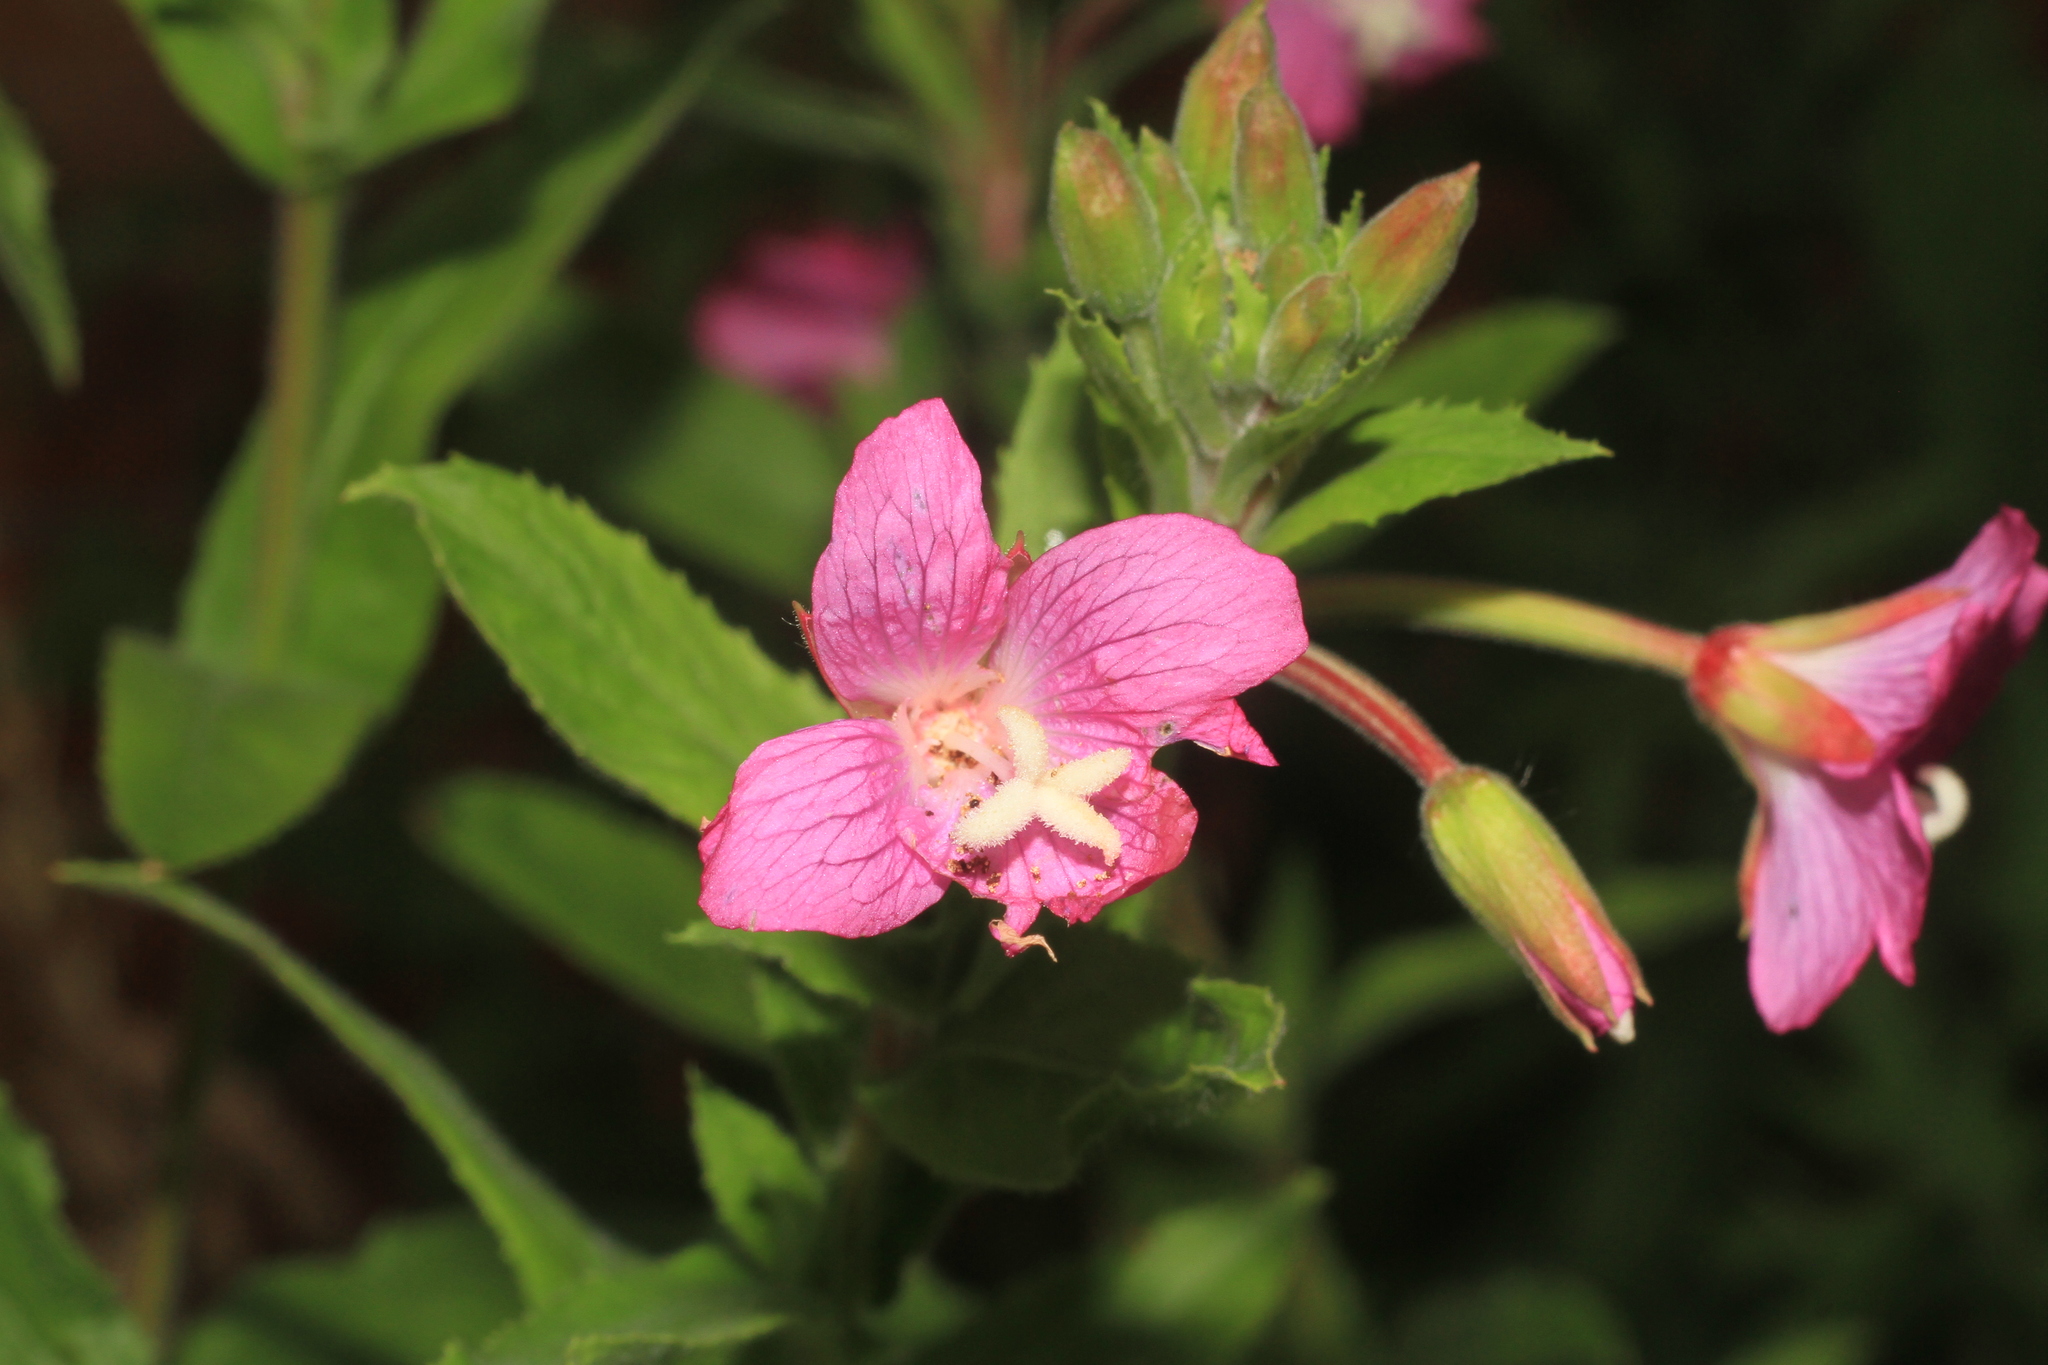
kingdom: Plantae
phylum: Tracheophyta
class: Magnoliopsida
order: Myrtales
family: Onagraceae
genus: Epilobium
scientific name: Epilobium hirsutum
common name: Great willowherb
